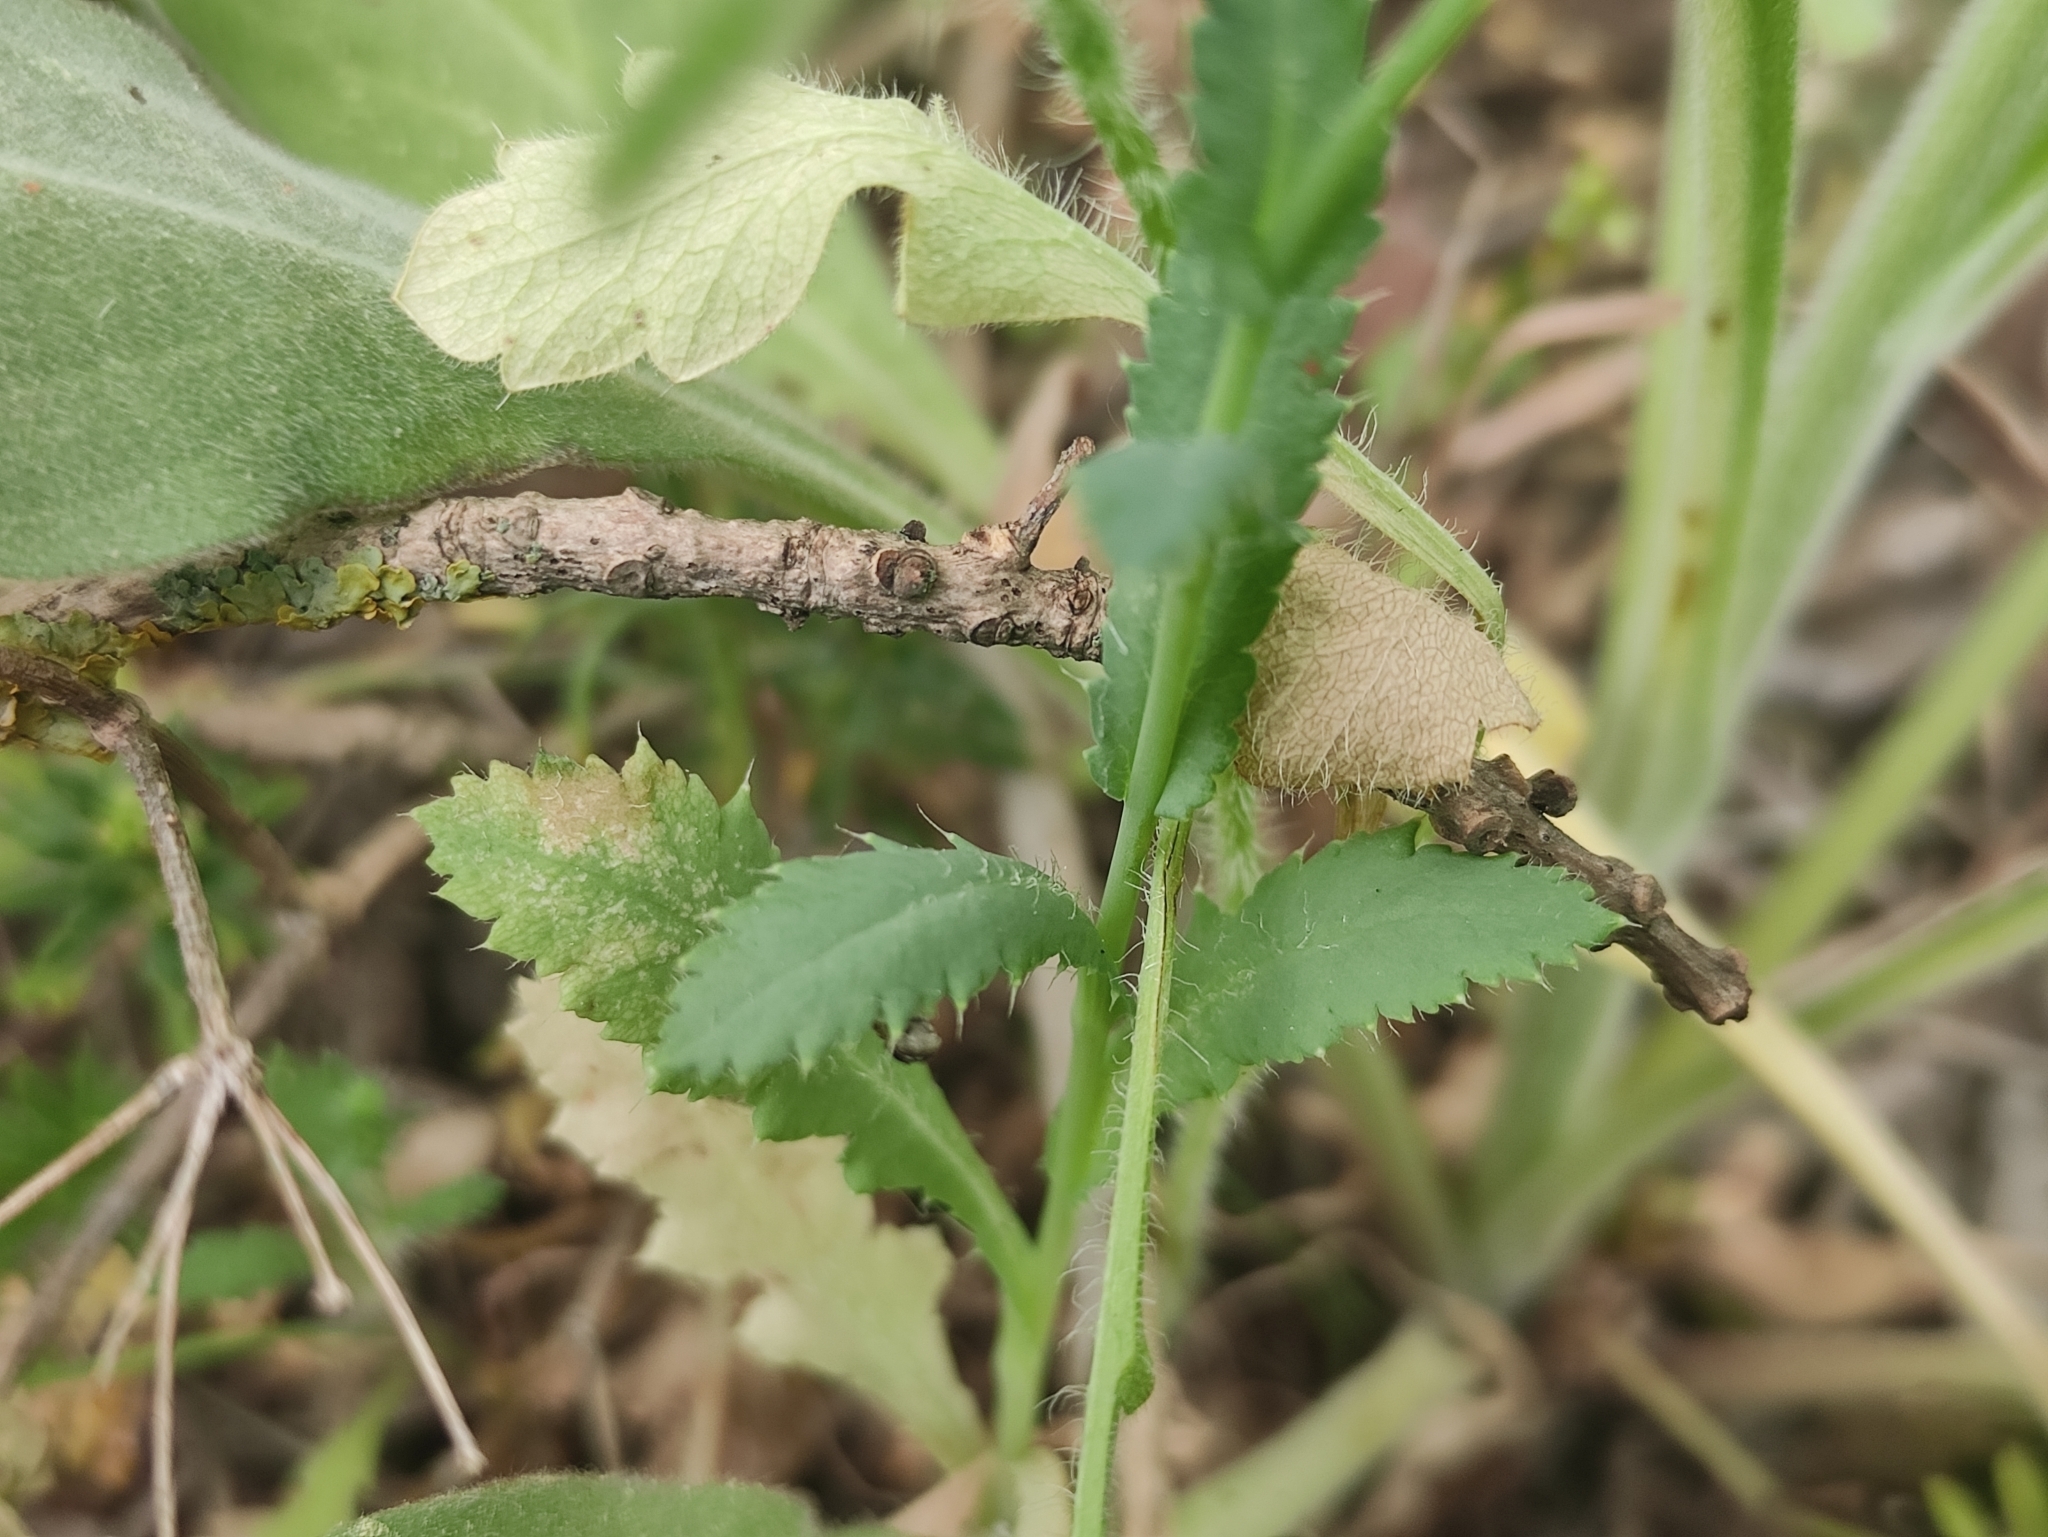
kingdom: Plantae
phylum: Tracheophyta
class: Magnoliopsida
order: Ranunculales
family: Papaveraceae
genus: Papaver
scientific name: Papaver somniferum
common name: Opium poppy
